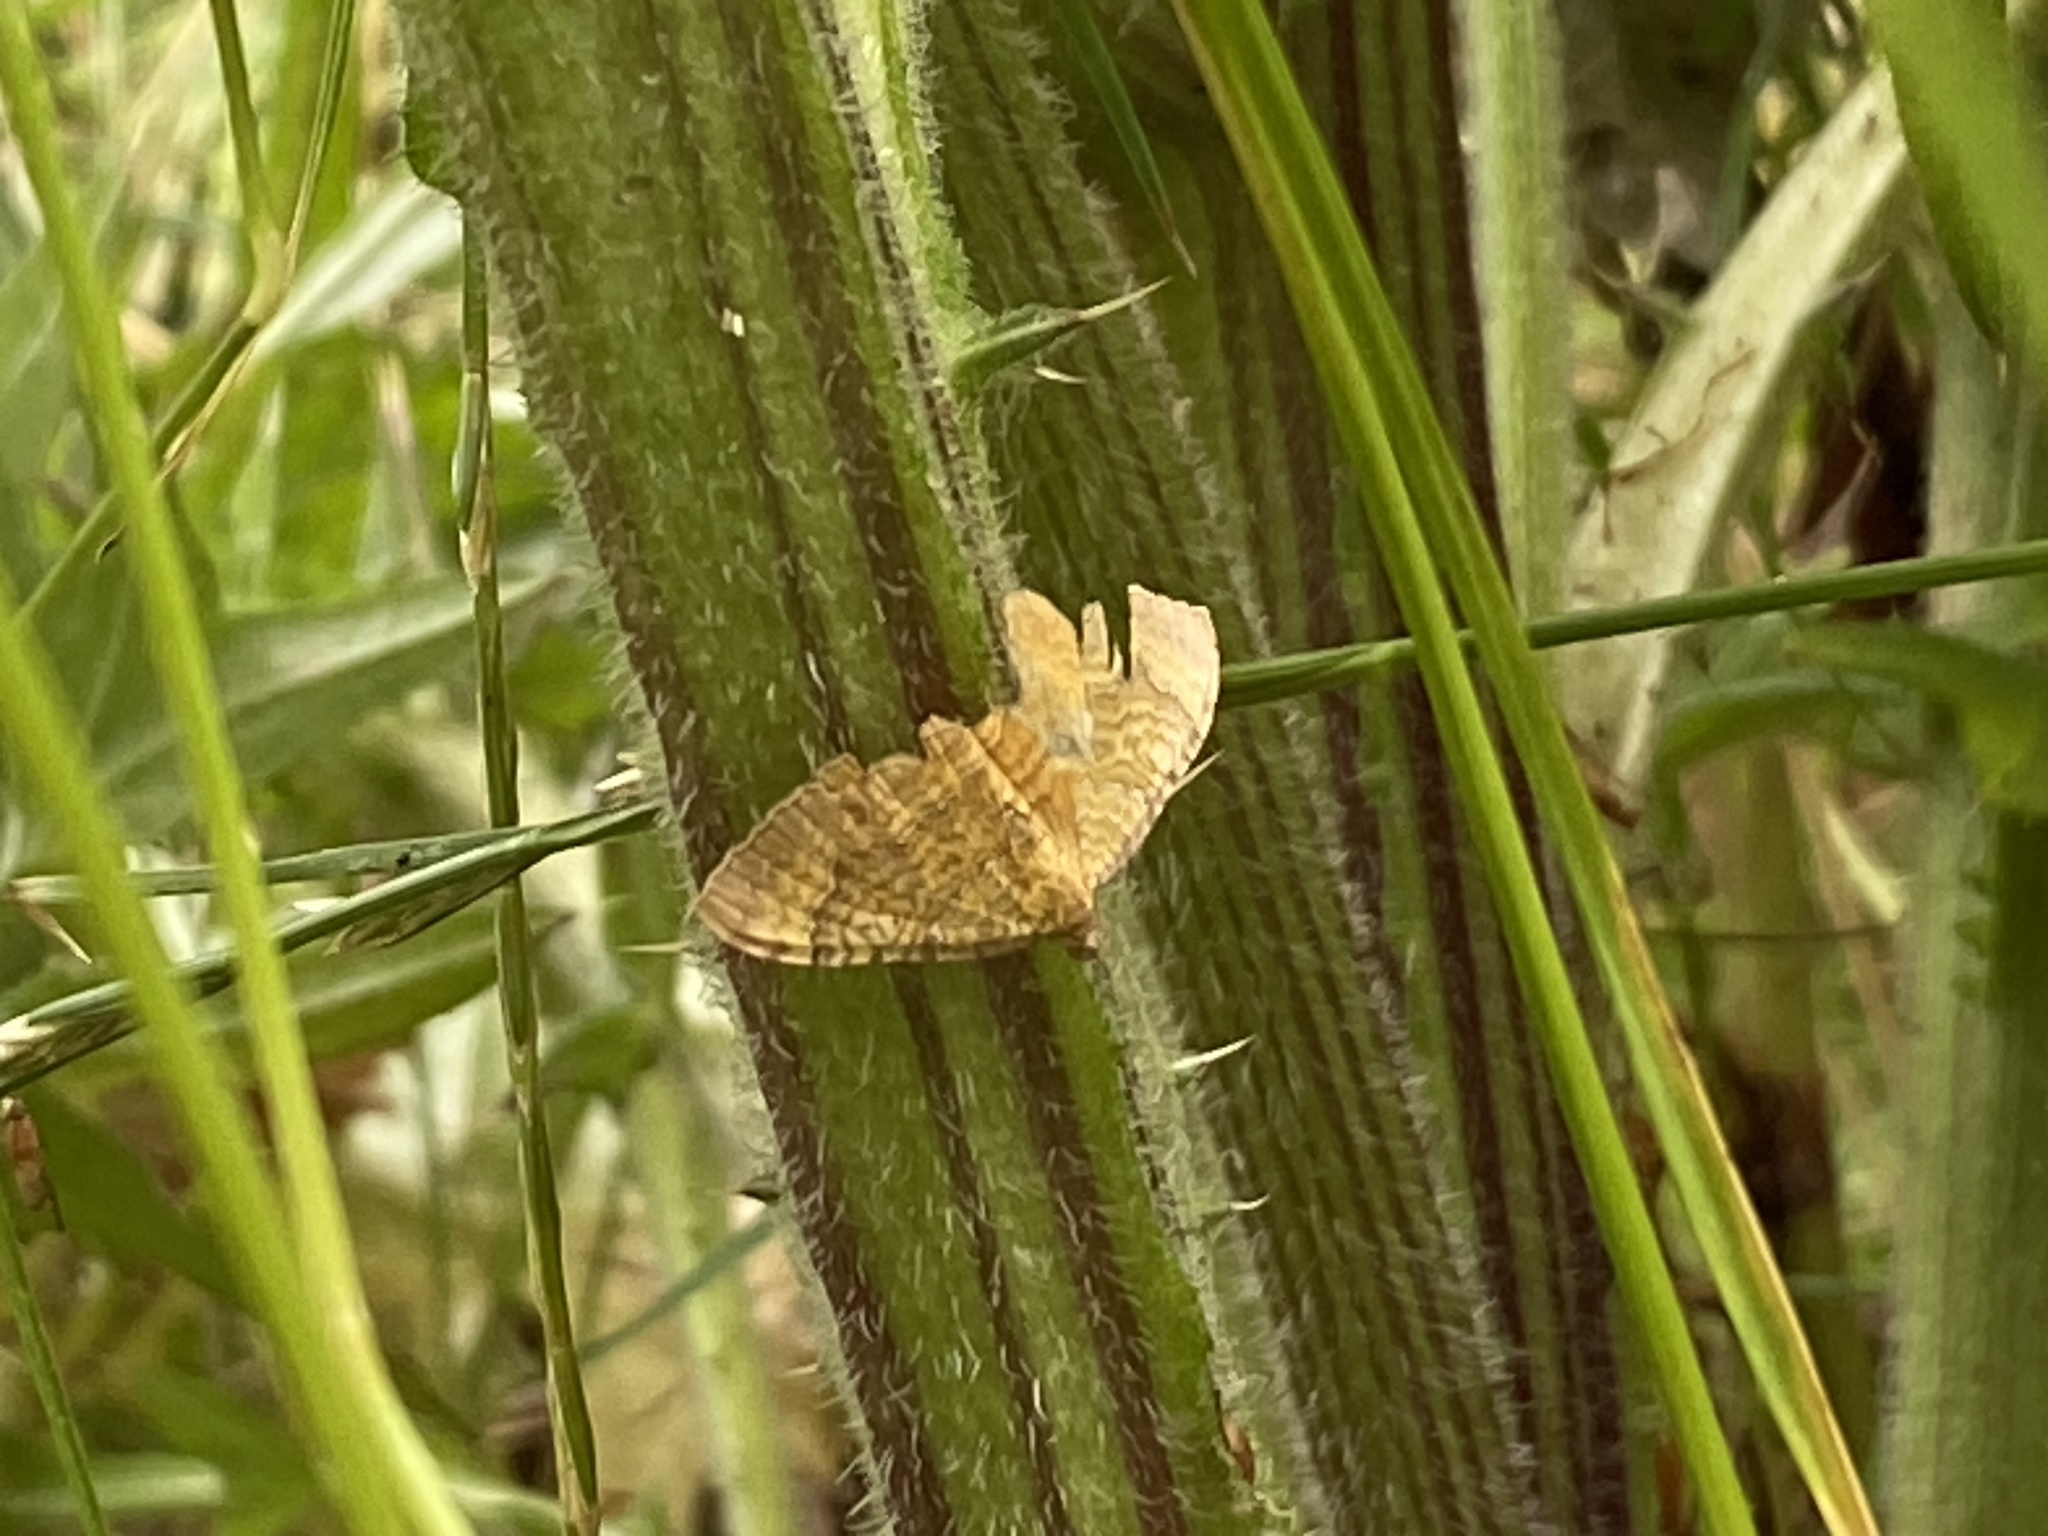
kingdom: Animalia
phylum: Arthropoda
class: Insecta
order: Lepidoptera
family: Geometridae
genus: Camptogramma
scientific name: Camptogramma bilineata
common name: Yellow shell
